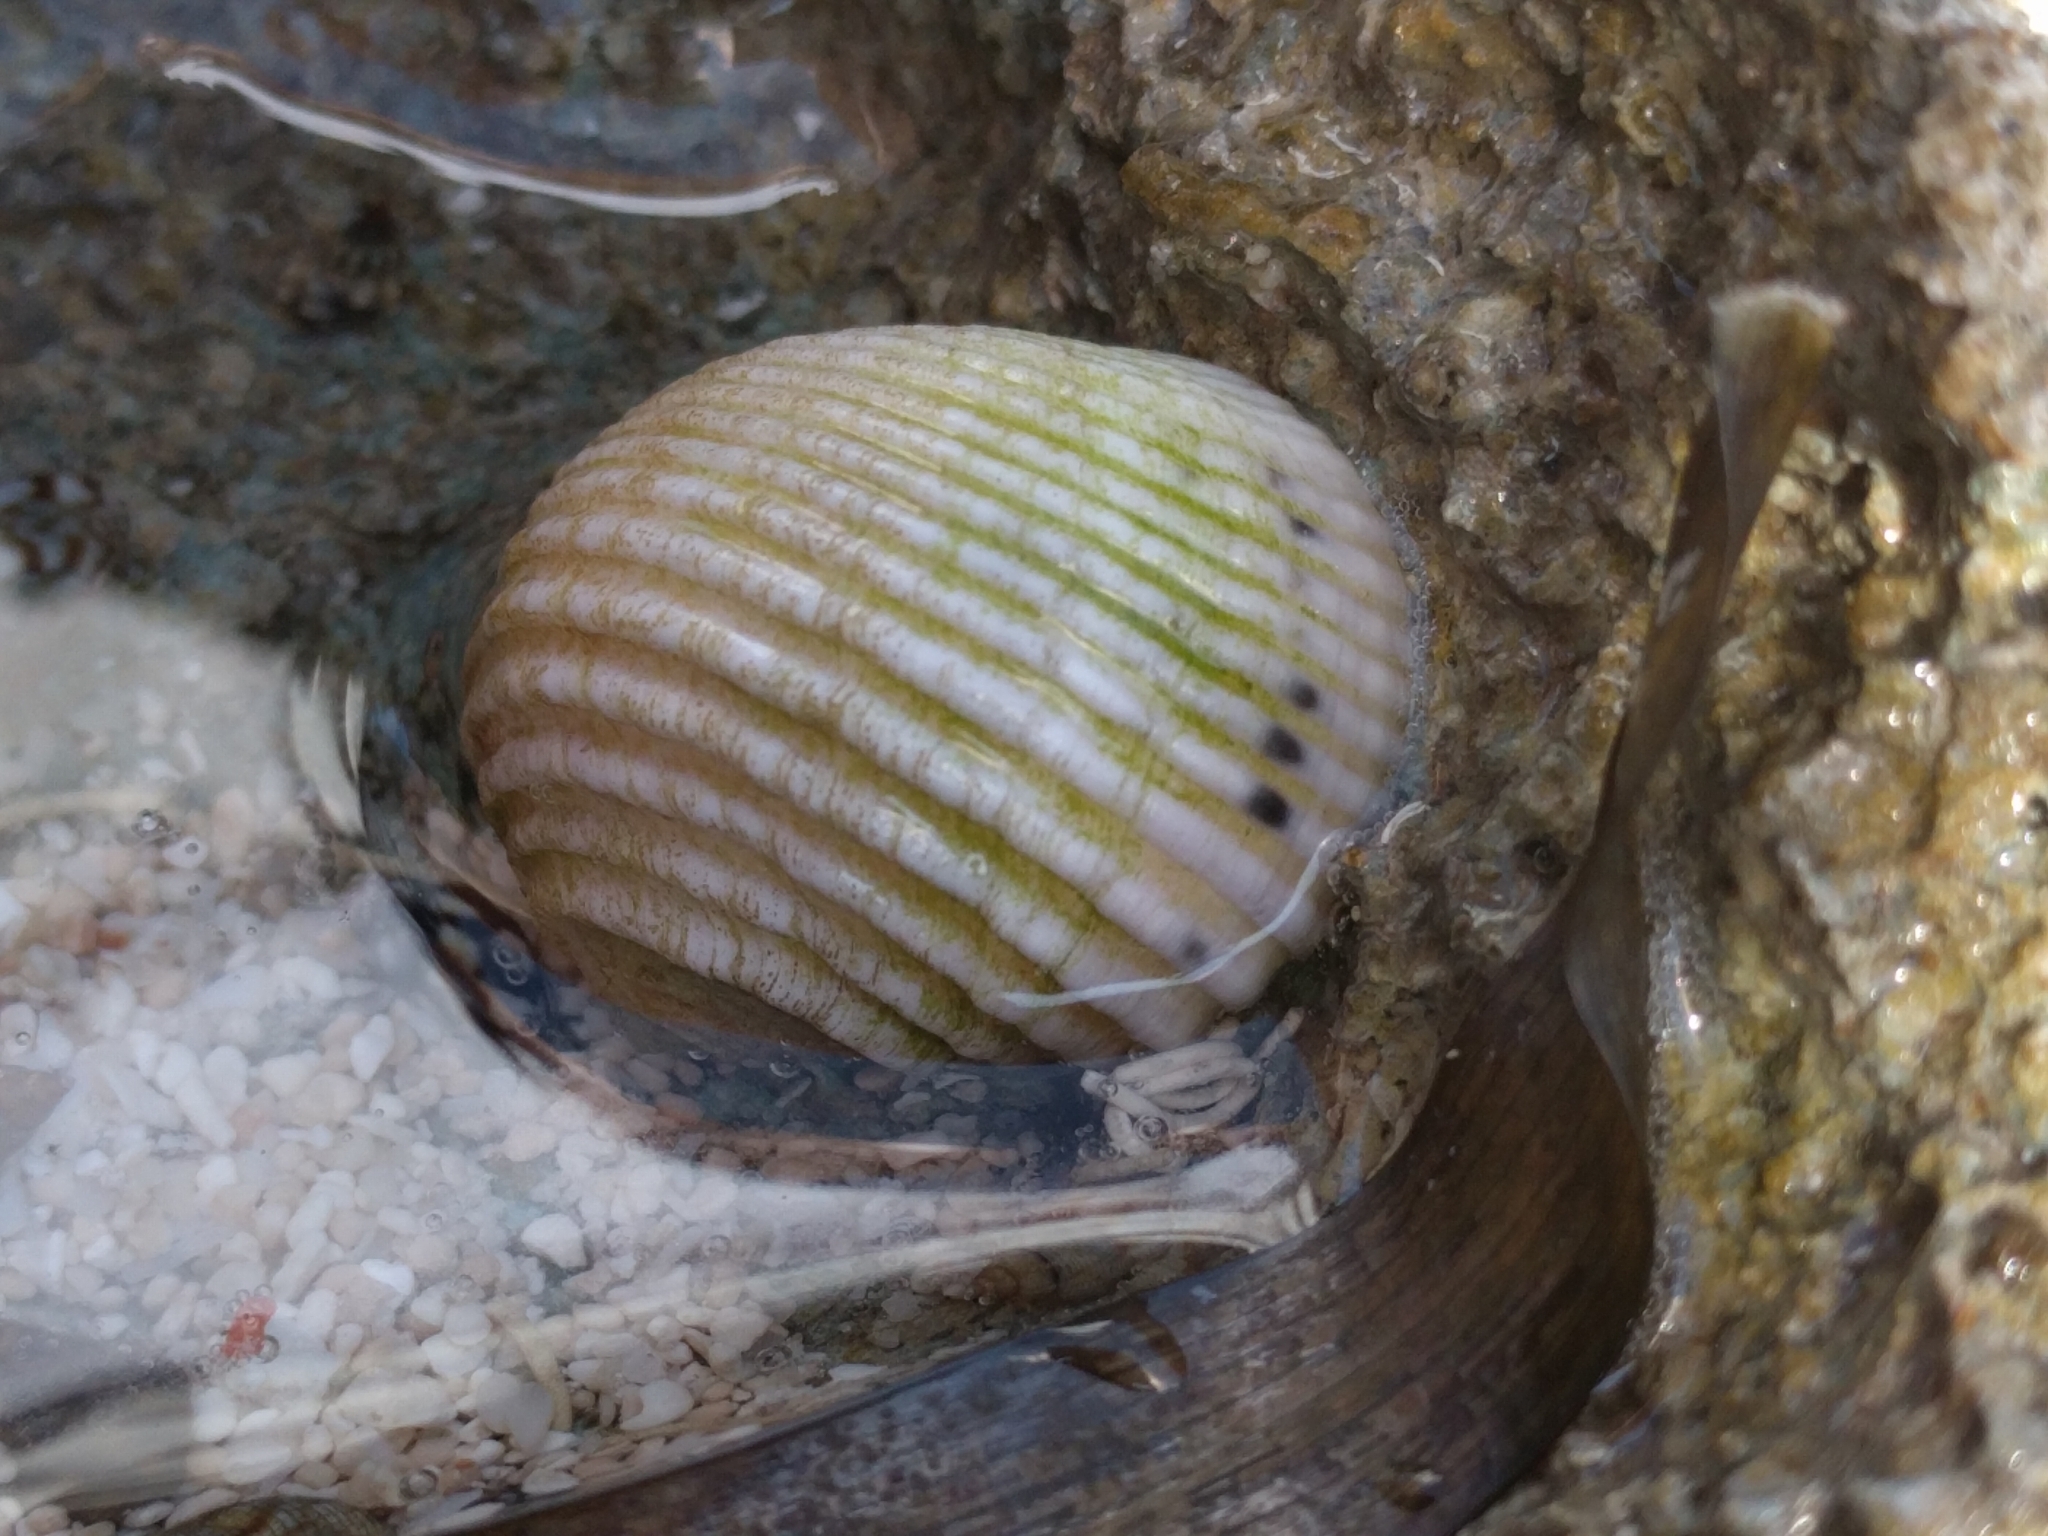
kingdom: Animalia
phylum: Mollusca
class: Gastropoda
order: Cycloneritida
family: Neritidae
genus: Nerita
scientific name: Nerita plicata
